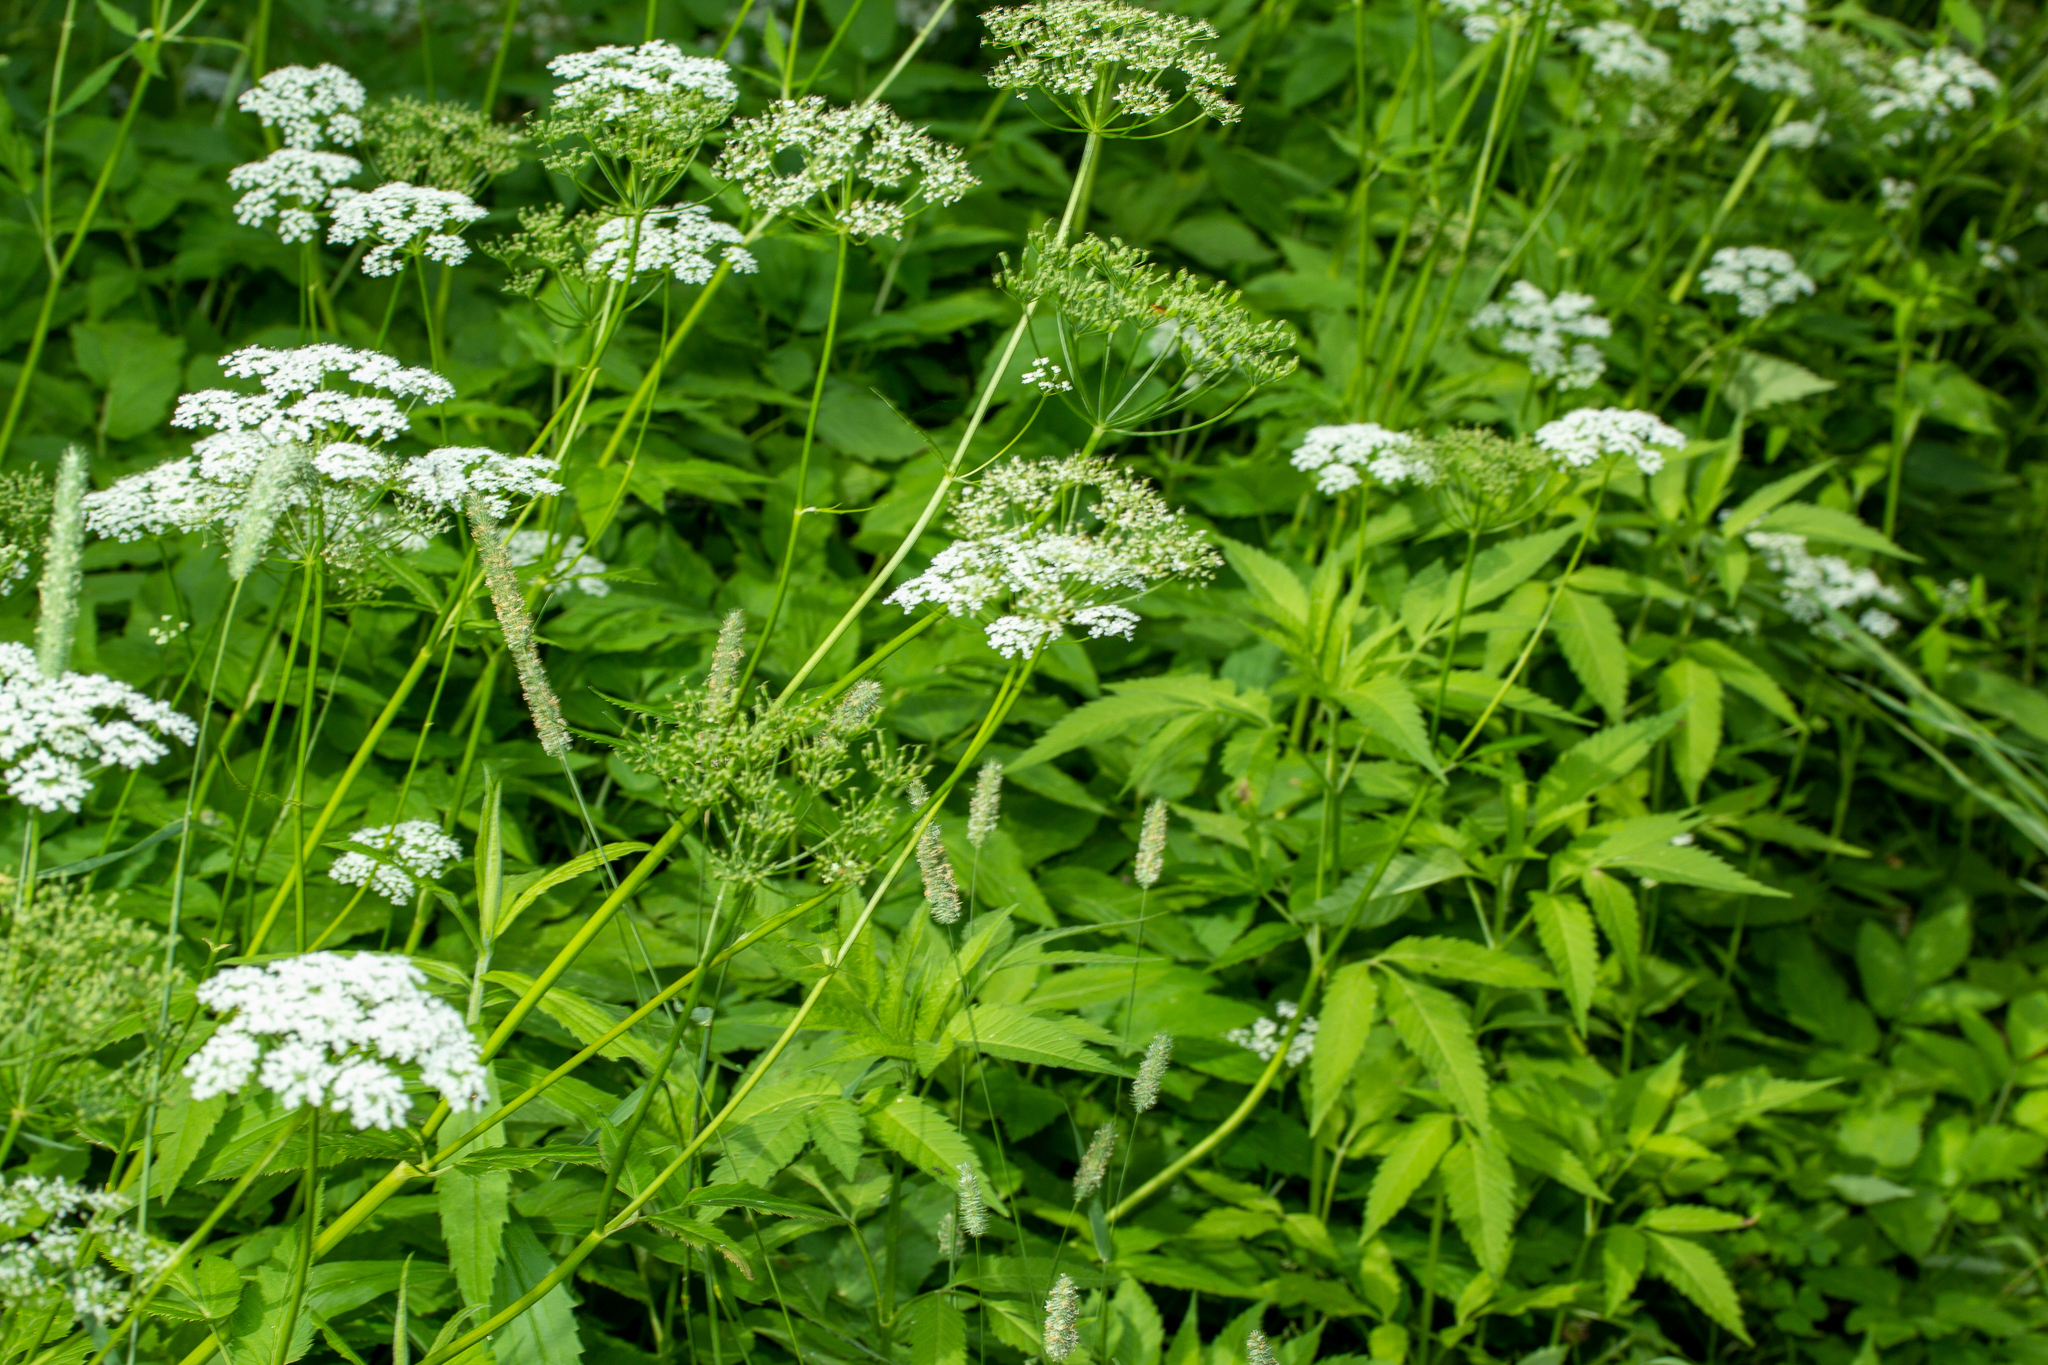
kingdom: Plantae
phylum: Tracheophyta
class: Magnoliopsida
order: Apiales
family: Apiaceae
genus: Aegopodium
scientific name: Aegopodium podagraria
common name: Ground-elder
